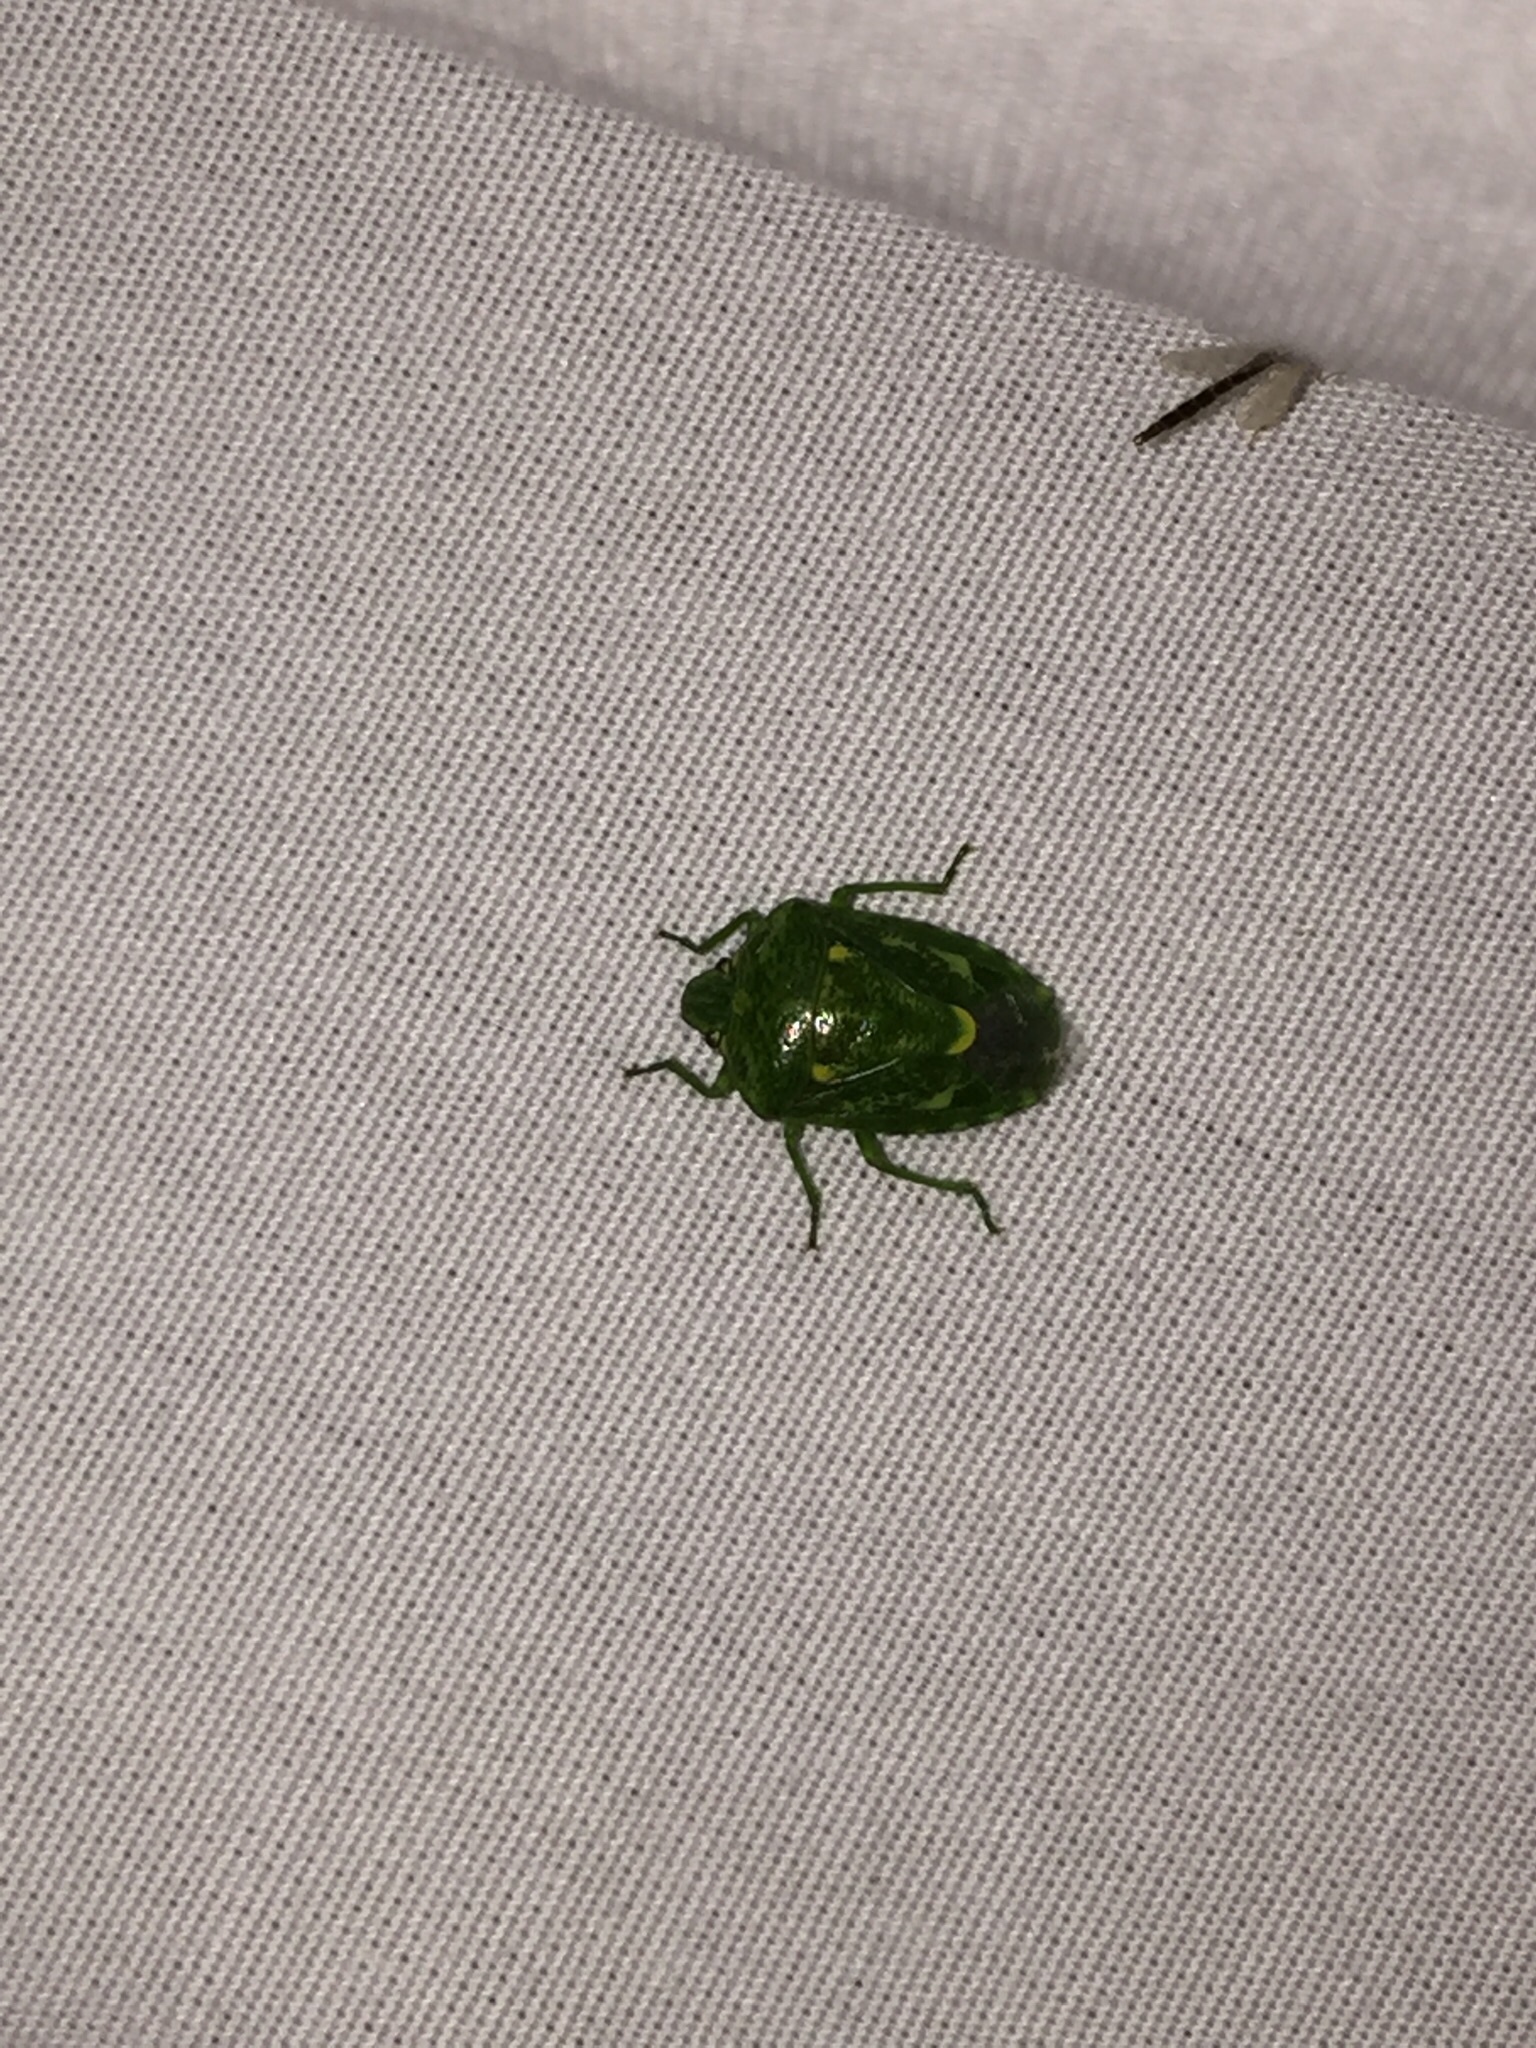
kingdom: Animalia
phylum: Arthropoda
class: Insecta
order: Hemiptera
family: Pentatomidae
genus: Banasa
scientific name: Banasa euchlora
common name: Cedar berry bug
